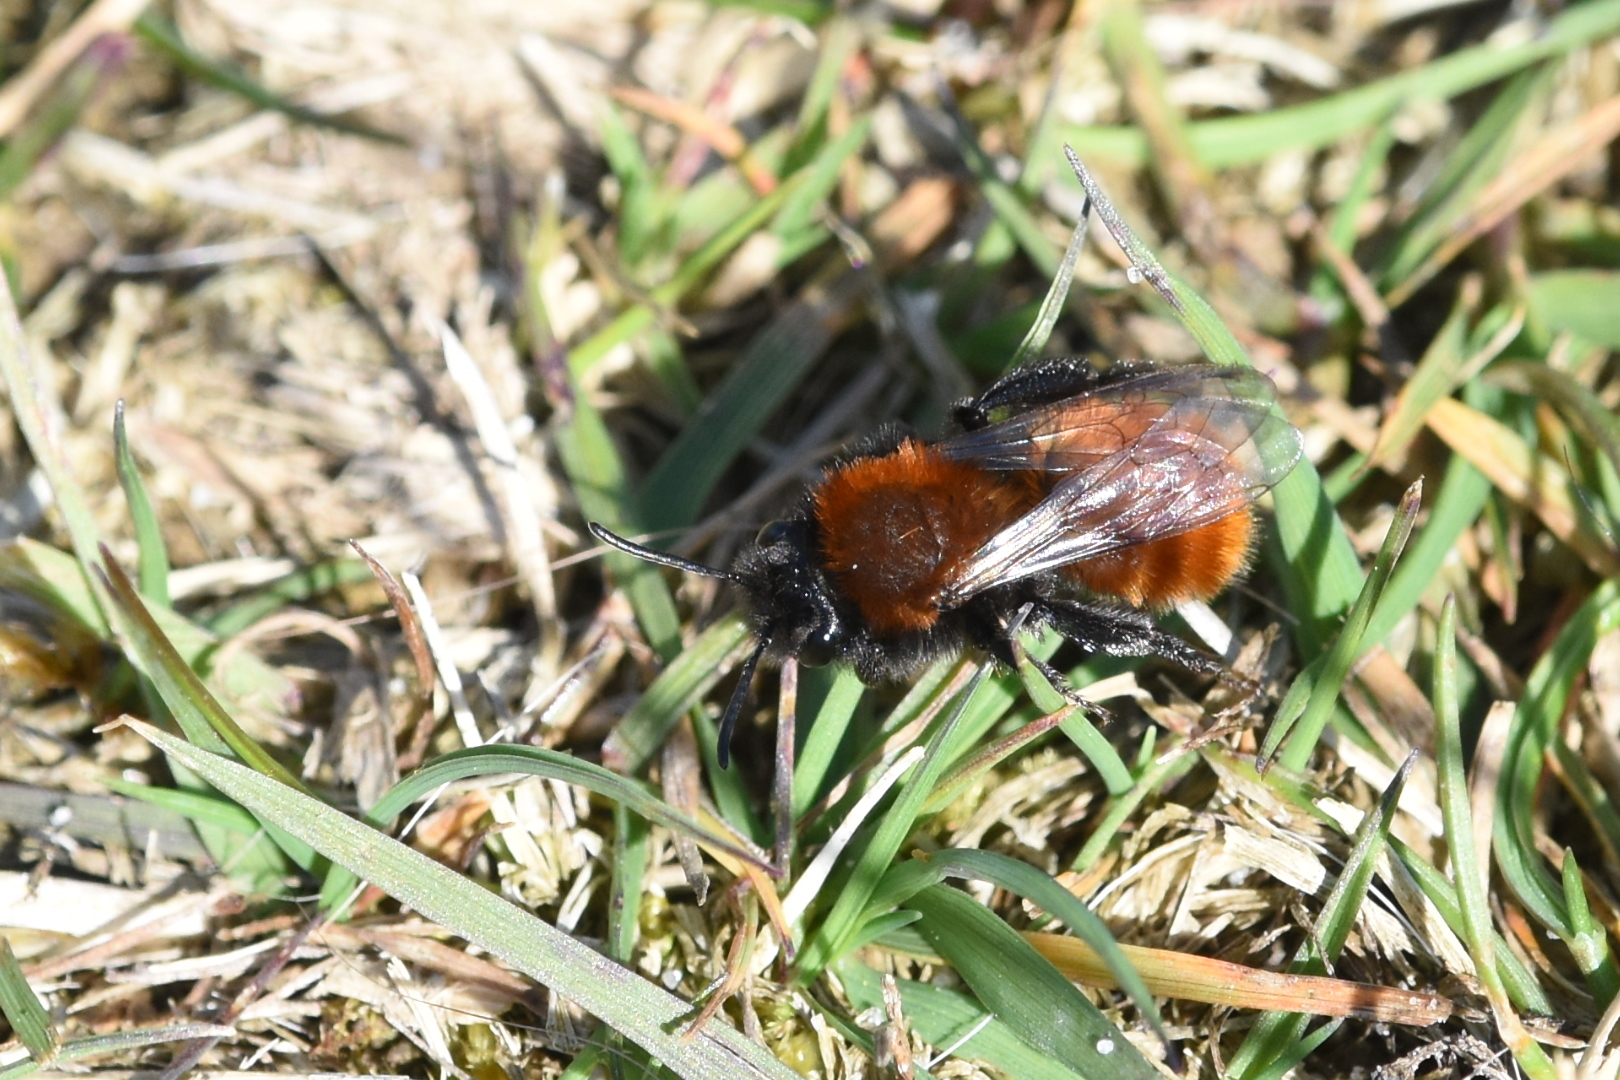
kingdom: Animalia
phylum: Arthropoda
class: Insecta
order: Hymenoptera
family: Andrenidae
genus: Andrena
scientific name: Andrena fulva
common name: Tawny mining bee
